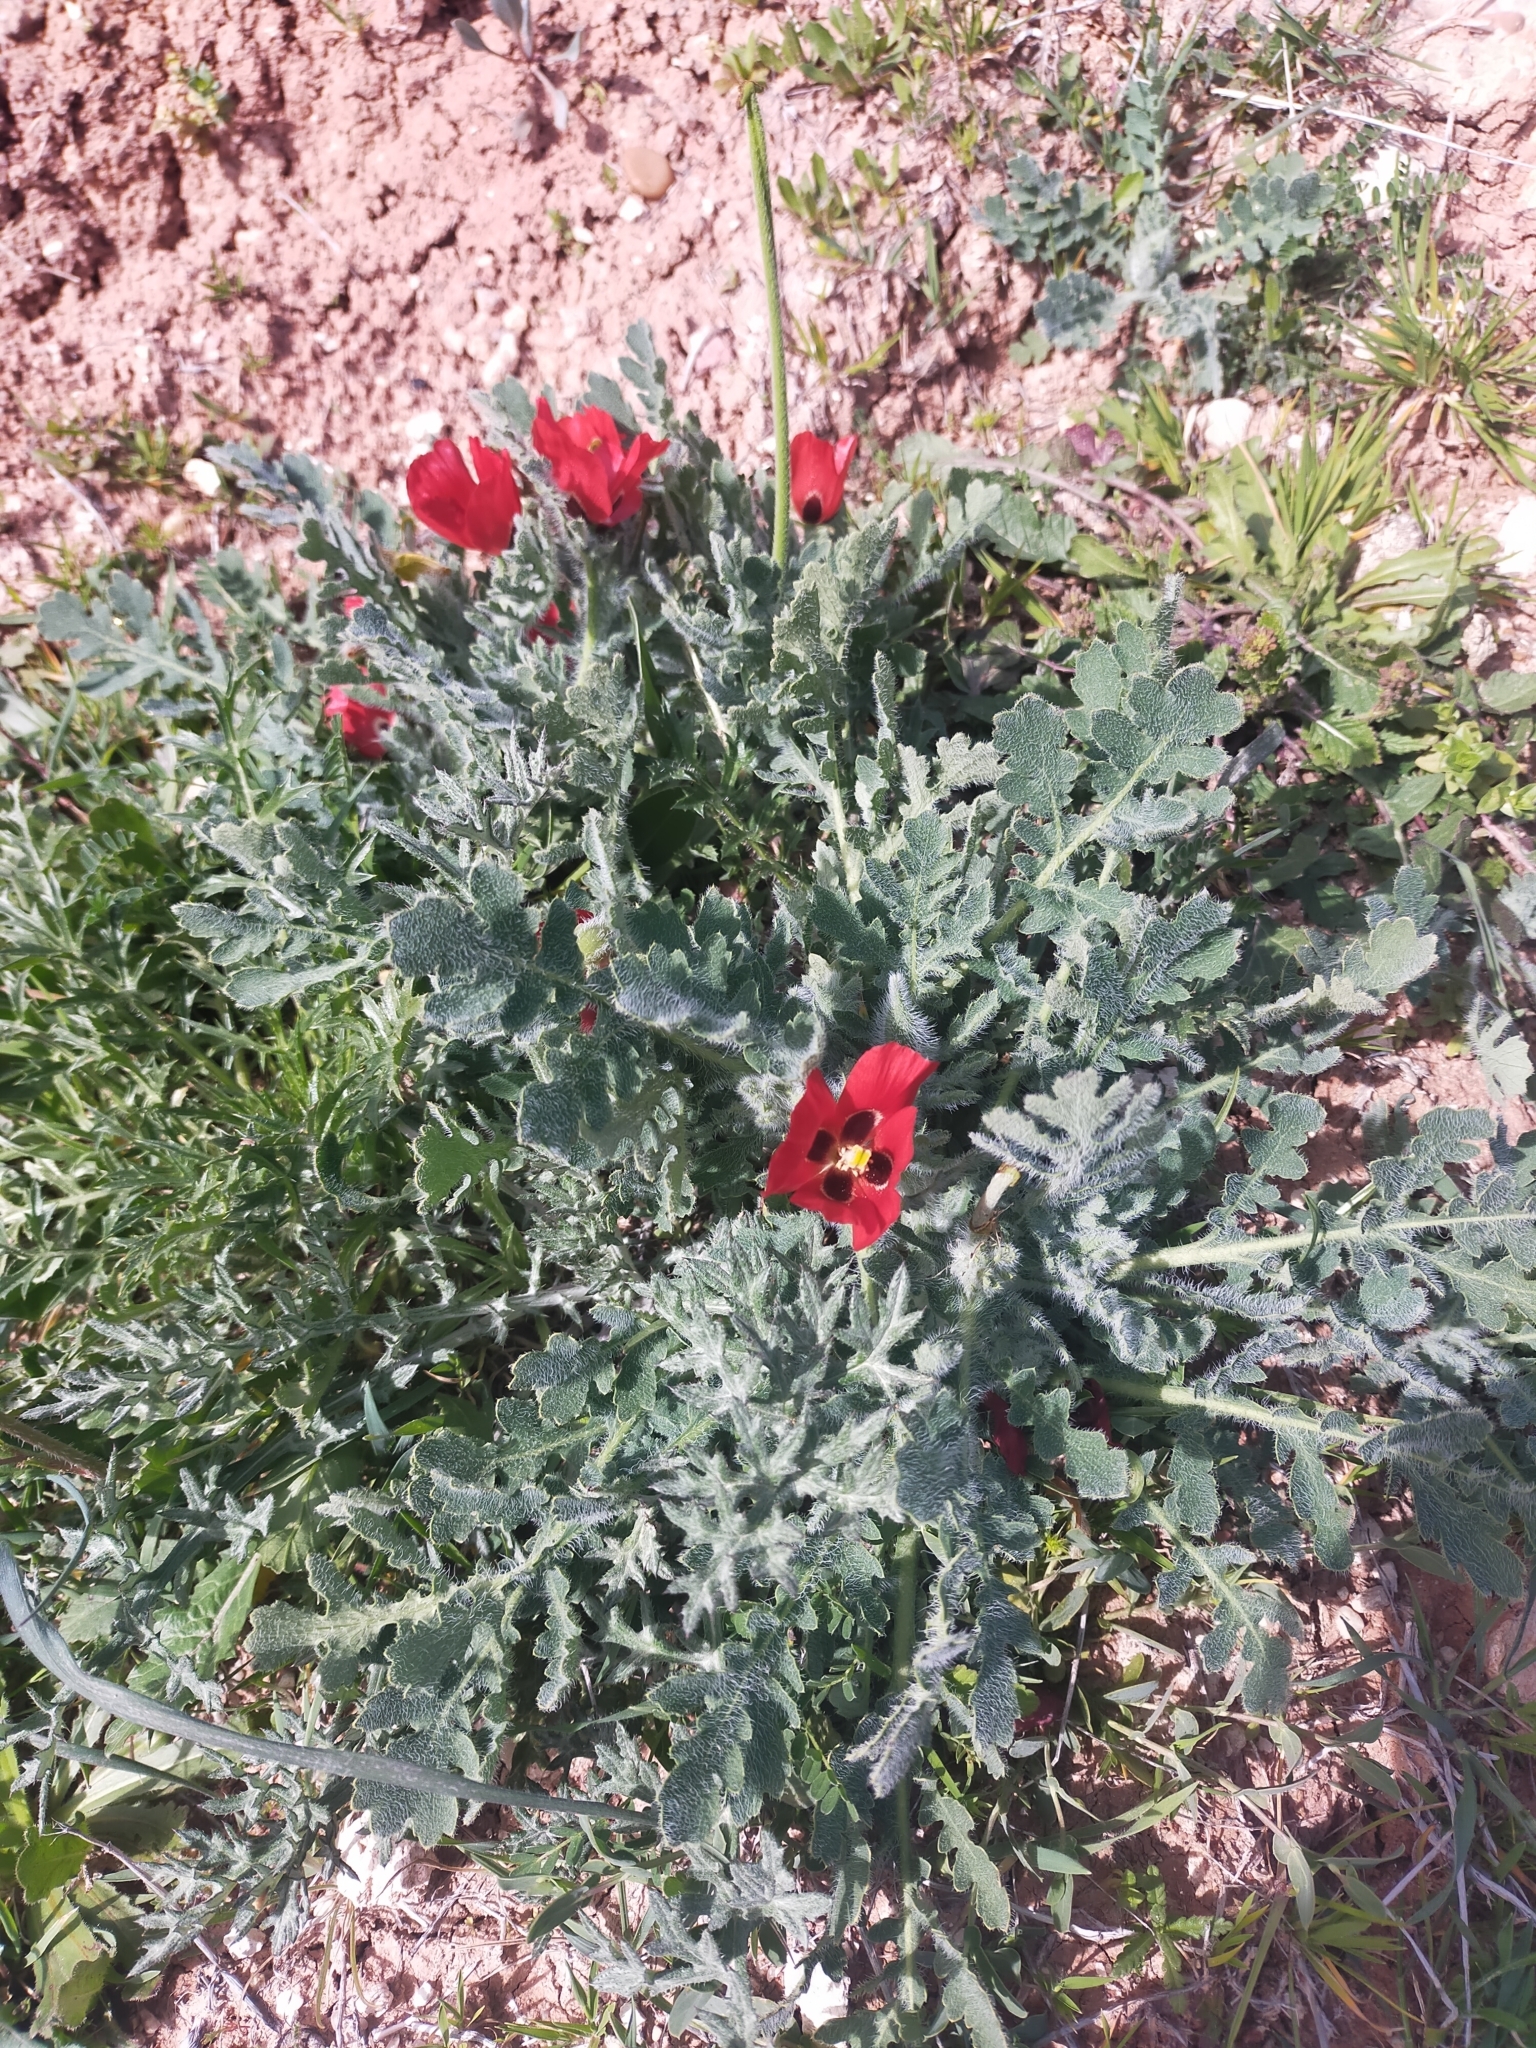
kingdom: Plantae
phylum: Tracheophyta
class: Magnoliopsida
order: Ranunculales
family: Papaveraceae
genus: Glaucium
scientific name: Glaucium corniculatum
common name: Red horned-poppy
